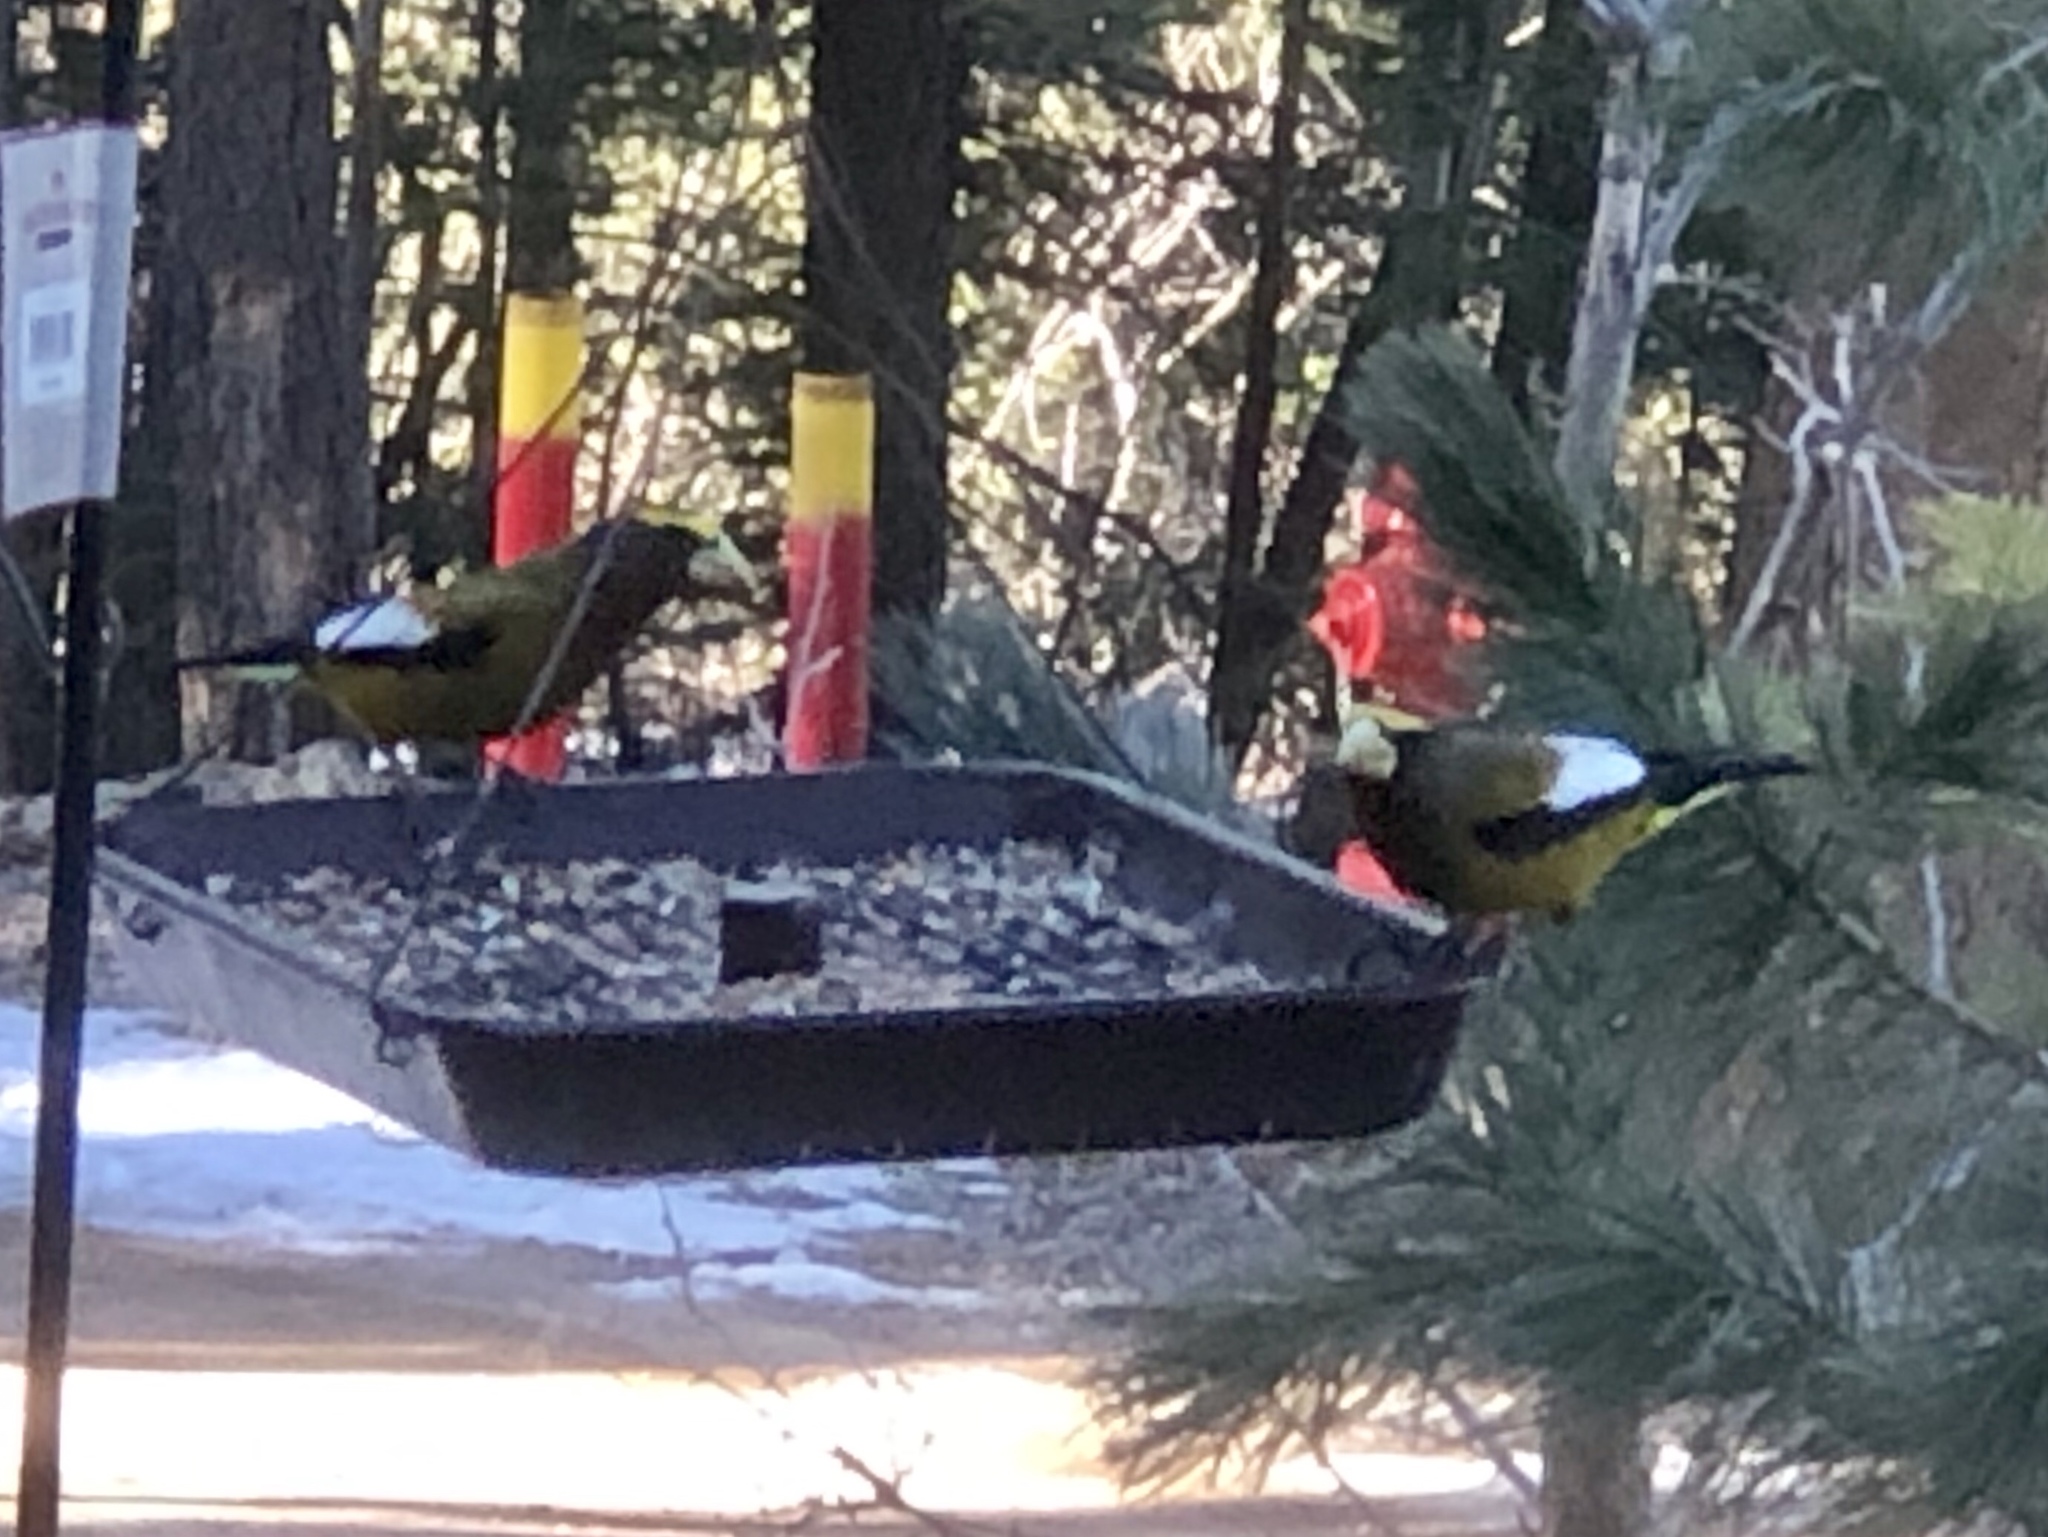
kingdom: Animalia
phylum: Chordata
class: Aves
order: Passeriformes
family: Fringillidae
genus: Hesperiphona
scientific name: Hesperiphona vespertina
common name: Evening grosbeak
